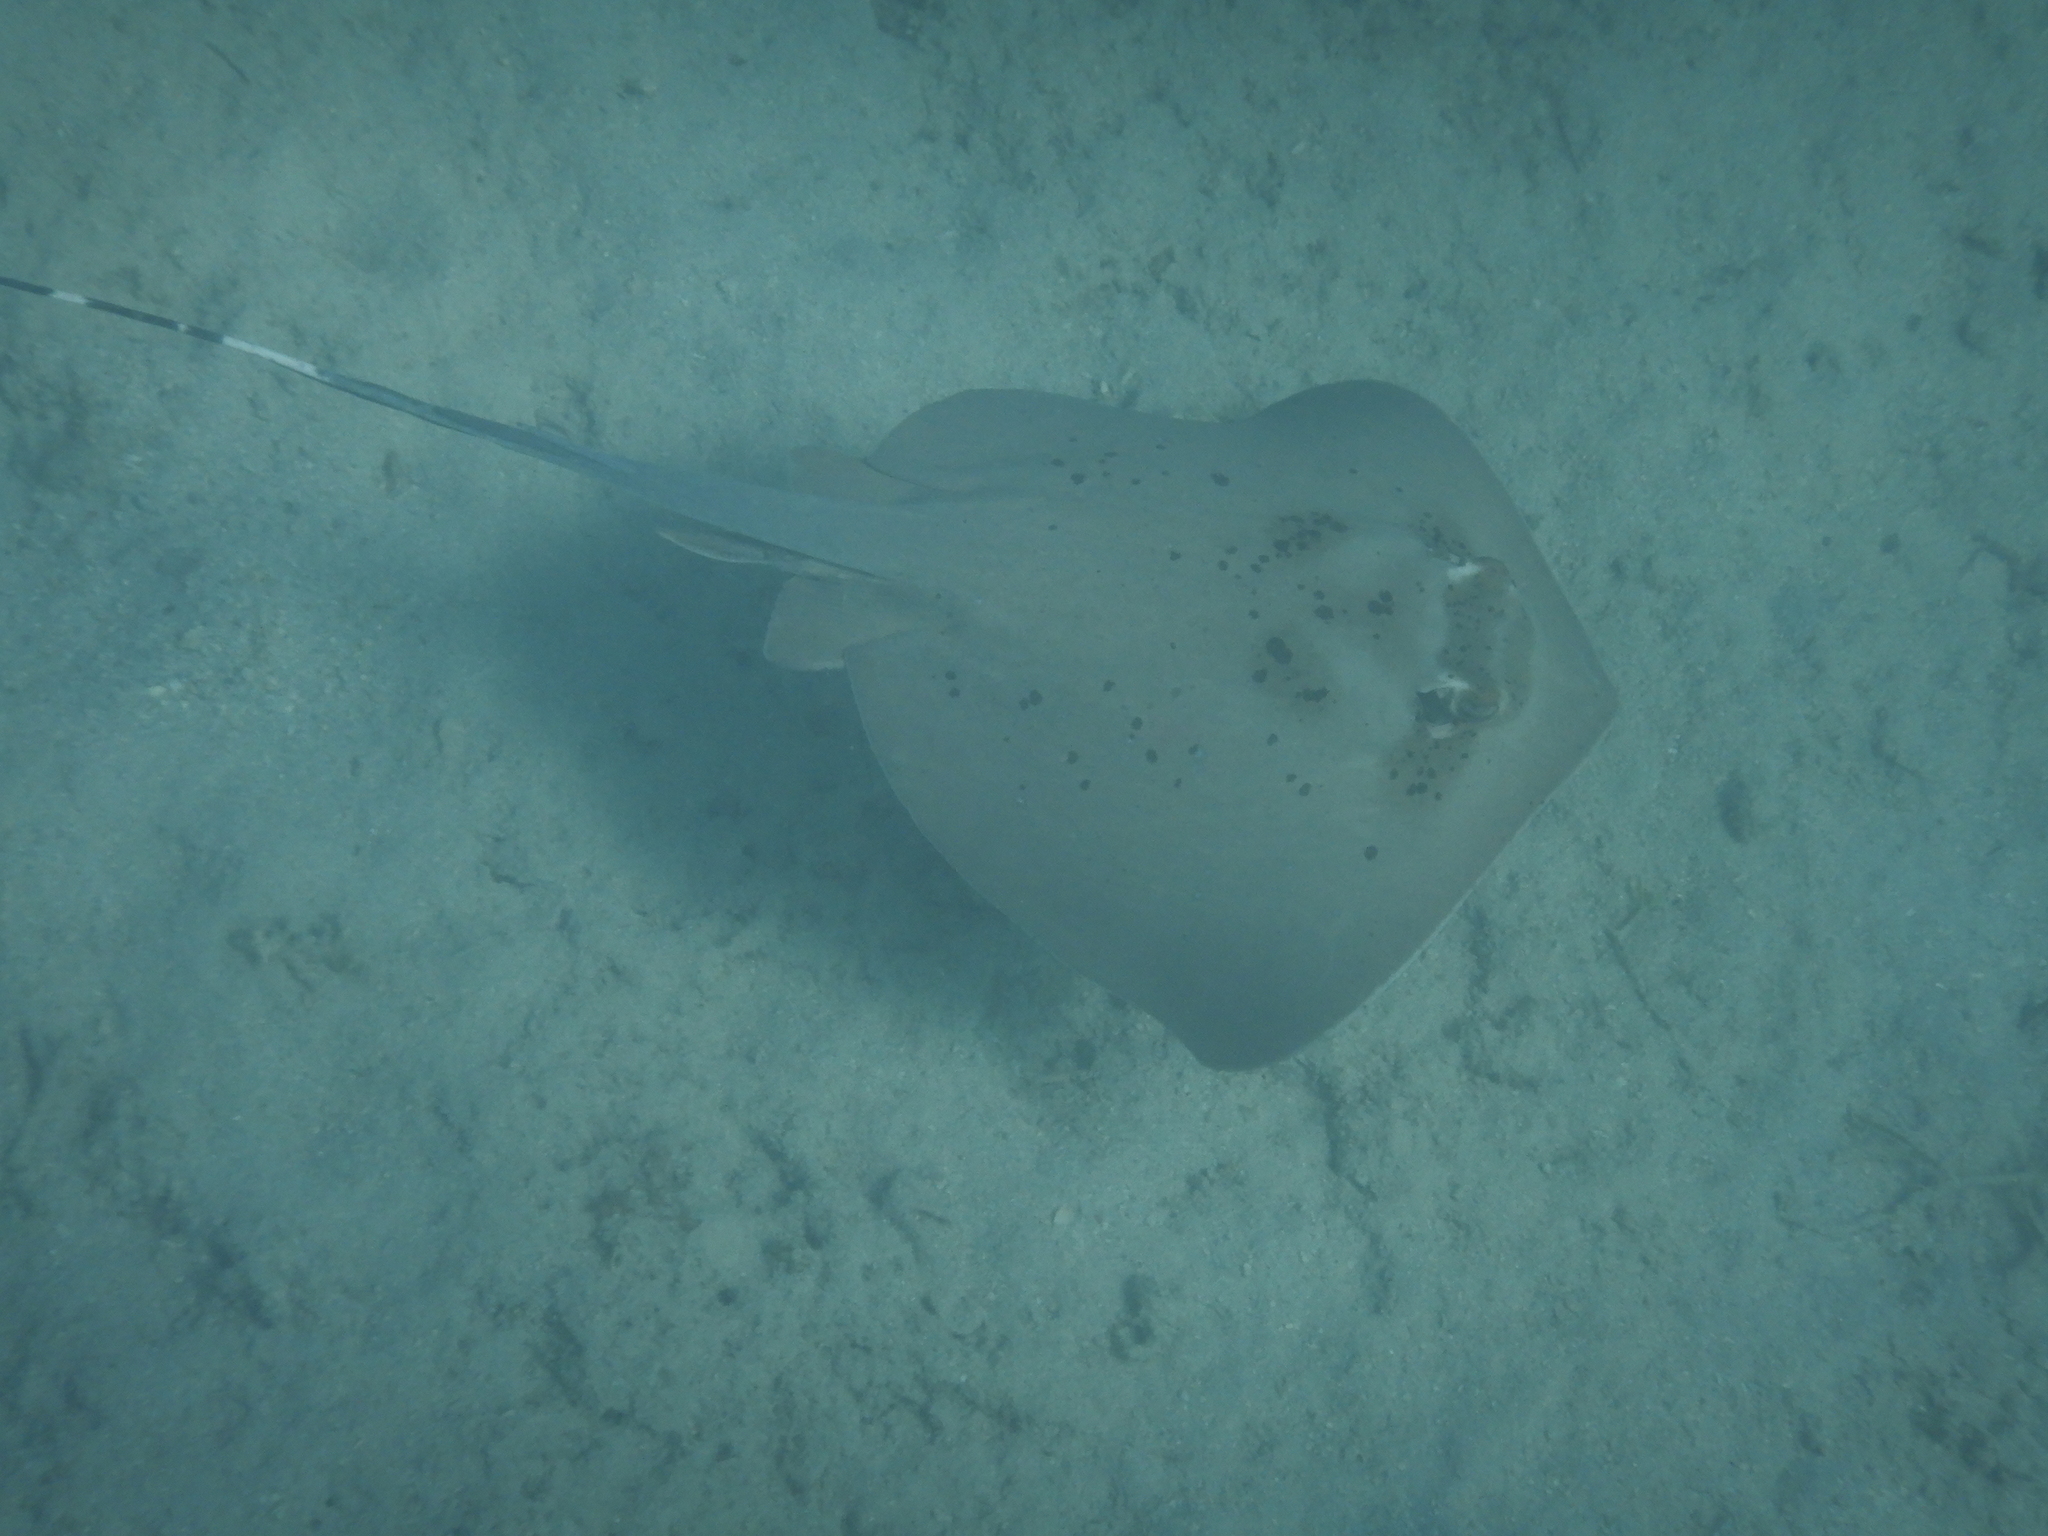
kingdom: Animalia
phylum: Chordata
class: Elasmobranchii
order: Myliobatiformes
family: Dasyatidae
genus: Neotrygon
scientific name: Neotrygon kuhlii
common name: Bluespotted stingray
